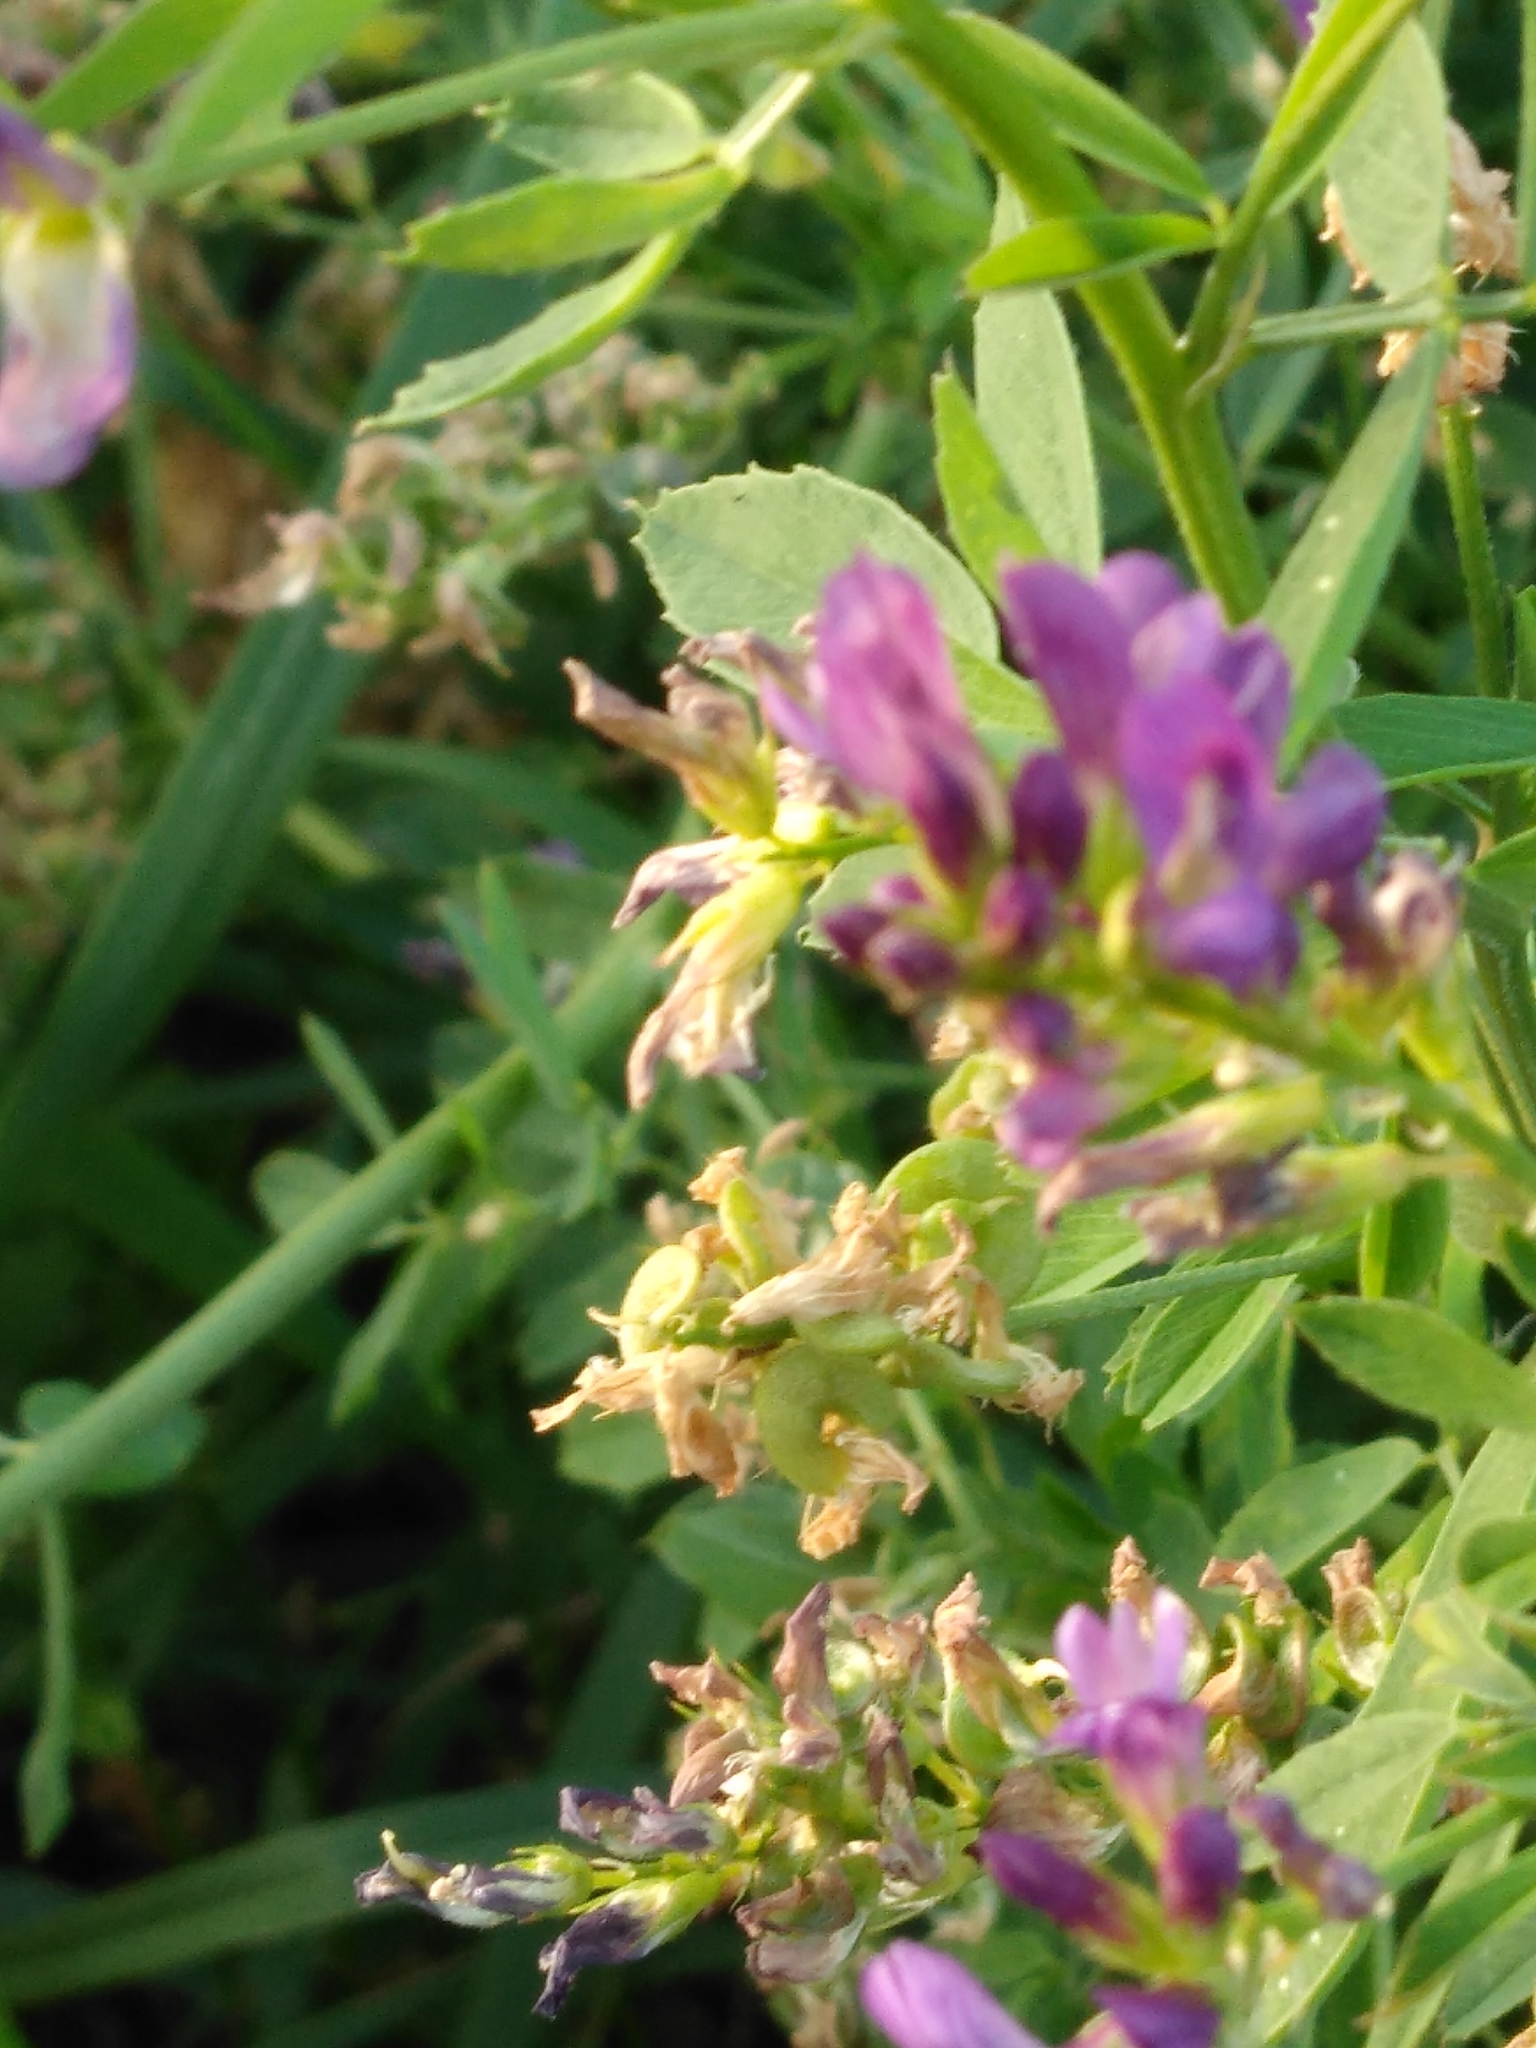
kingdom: Plantae
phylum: Tracheophyta
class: Magnoliopsida
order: Fabales
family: Fabaceae
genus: Medicago
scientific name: Medicago sativa
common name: Alfalfa
